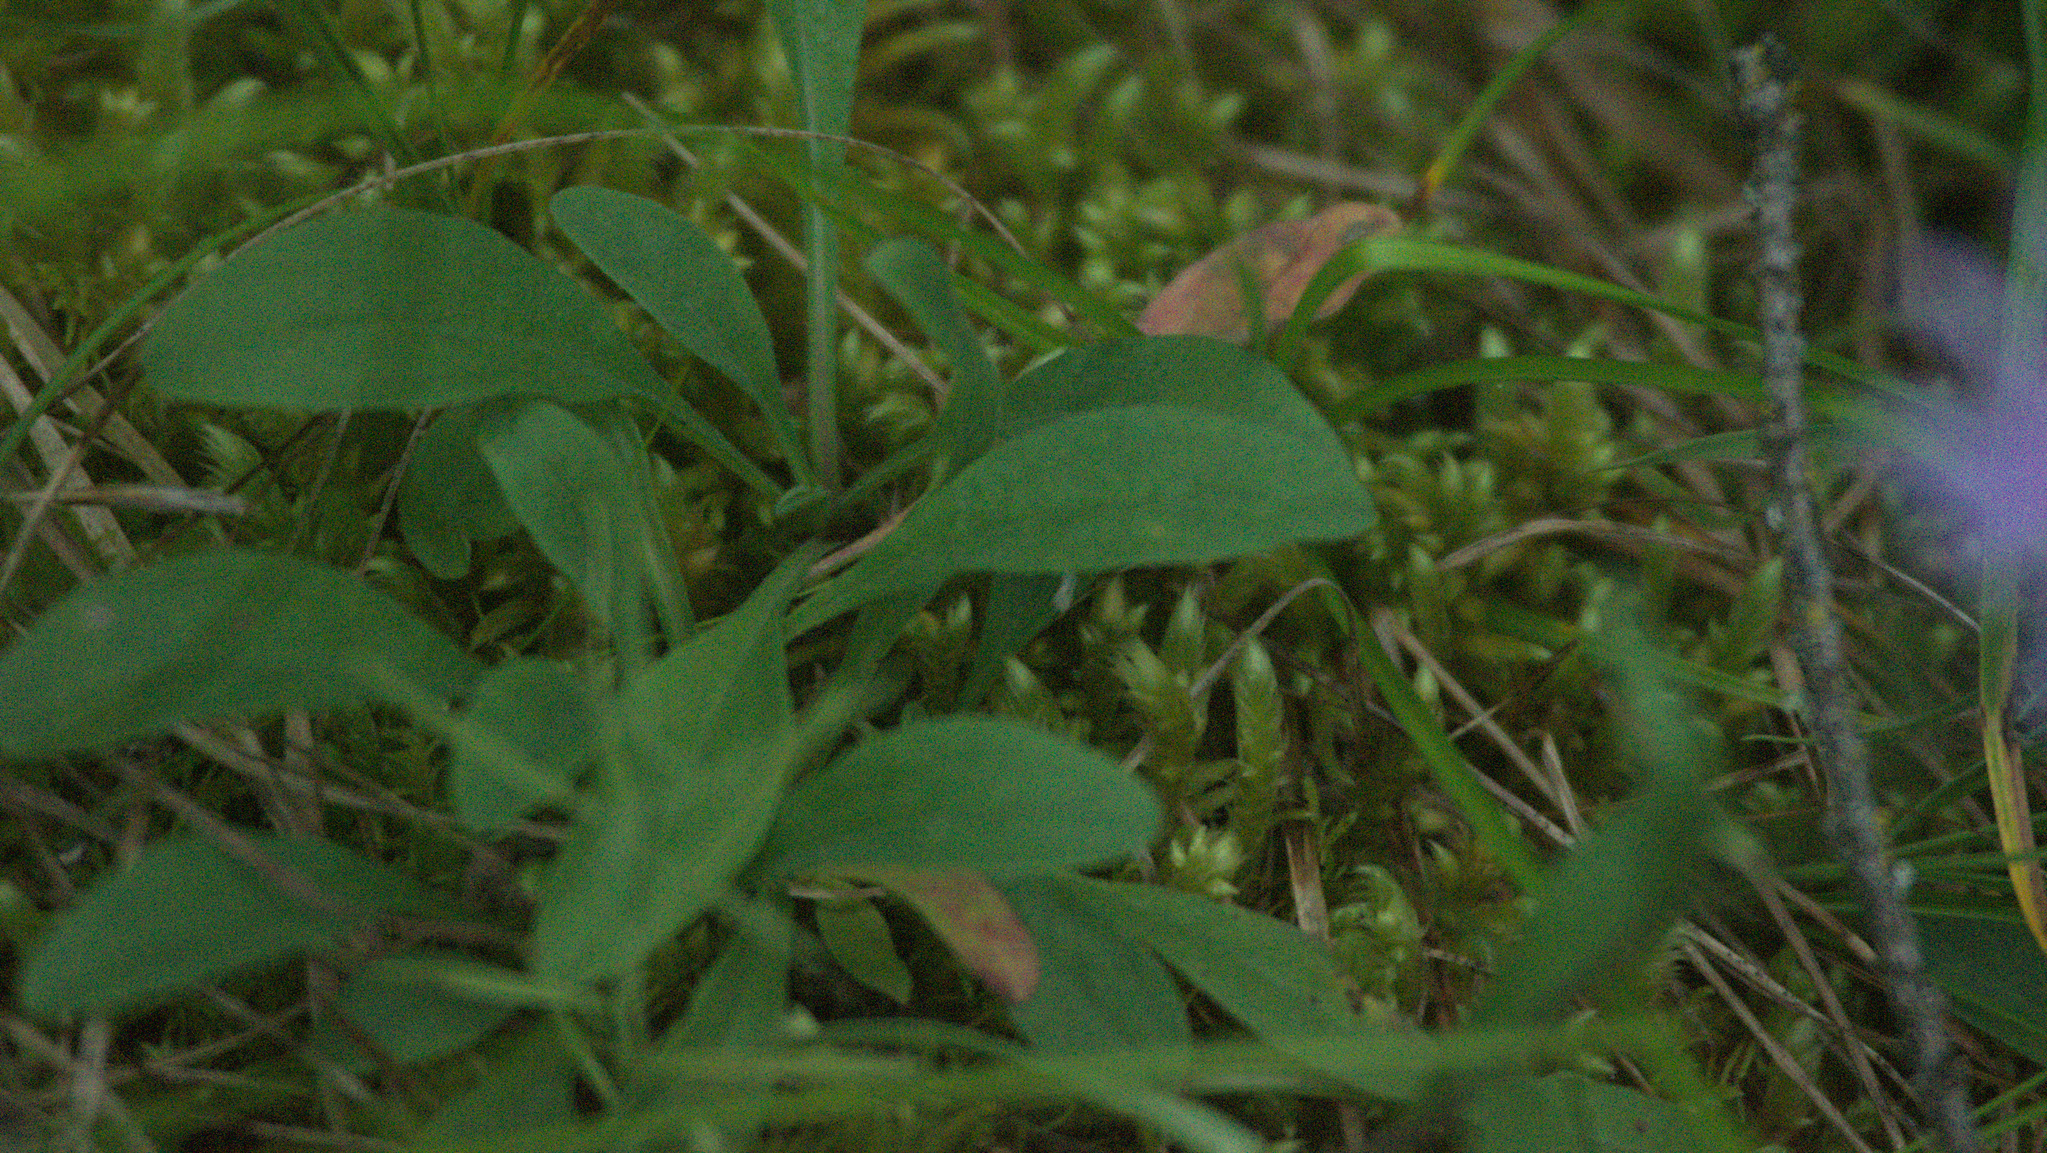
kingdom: Plantae
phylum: Tracheophyta
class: Magnoliopsida
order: Asterales
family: Asteraceae
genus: Aster
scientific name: Aster alpinus
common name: Alpine aster
